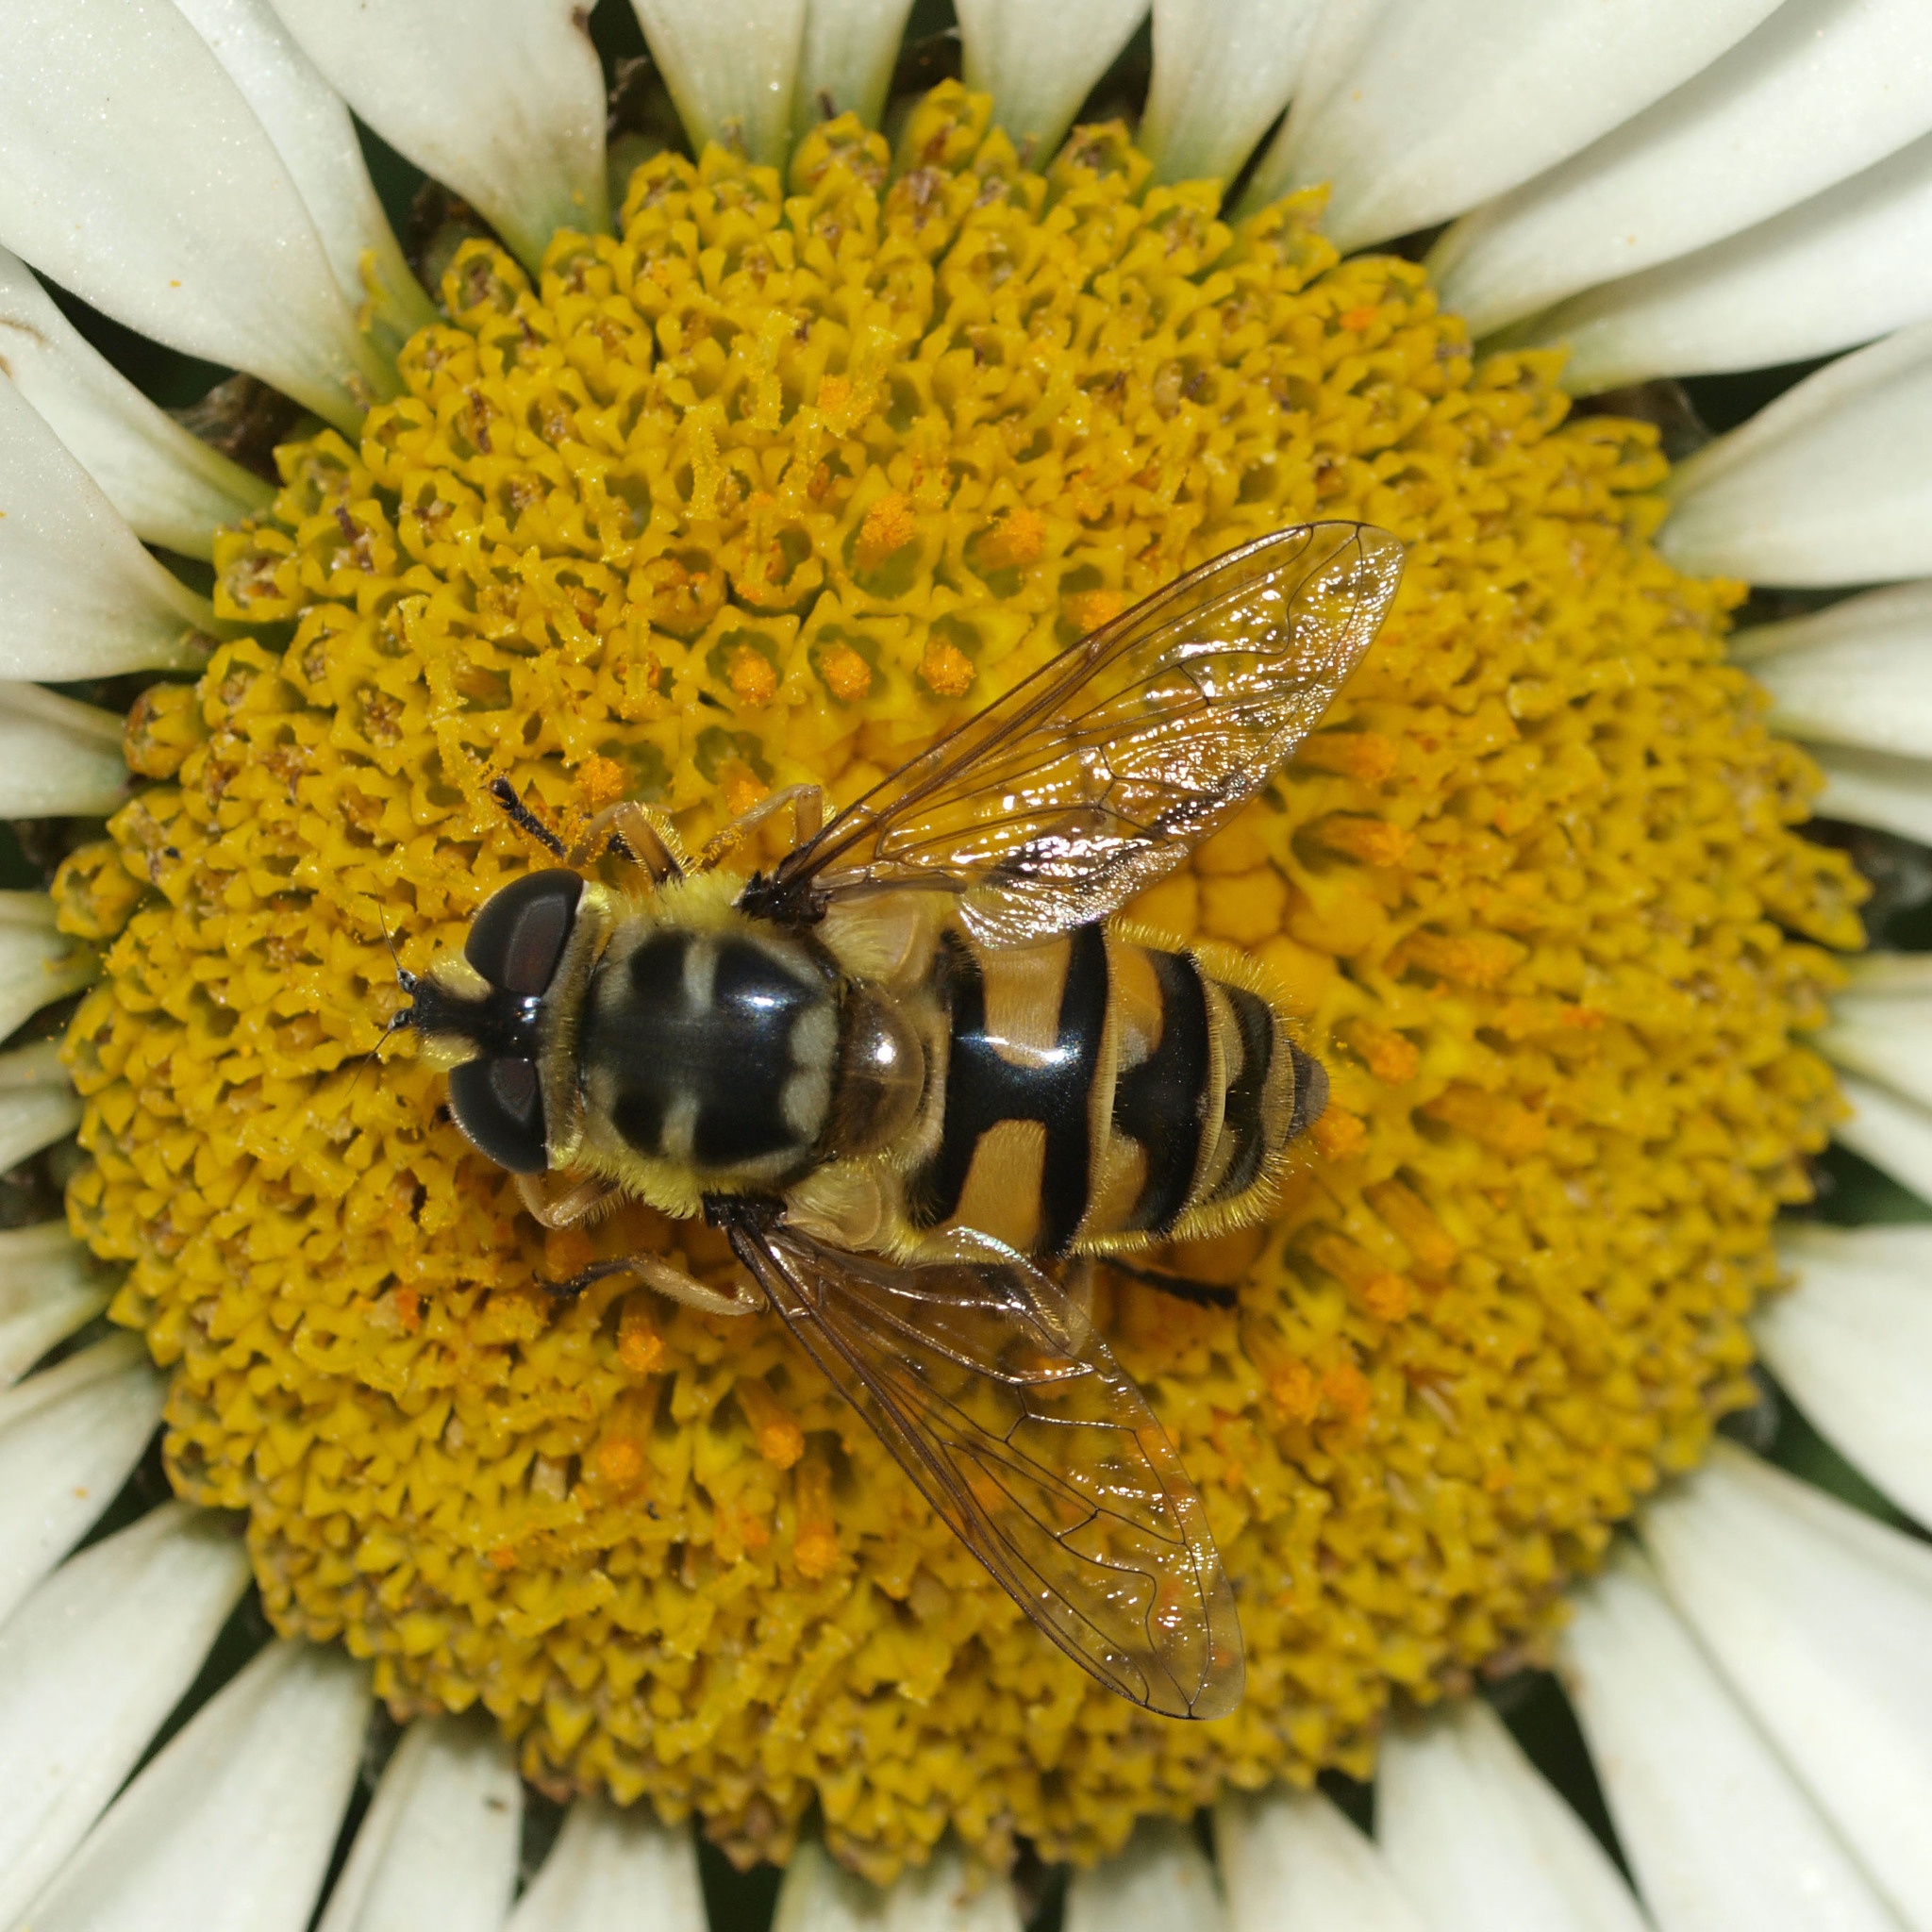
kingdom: Animalia
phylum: Arthropoda
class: Insecta
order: Diptera
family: Syrphidae
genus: Myathropa
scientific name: Myathropa florea
